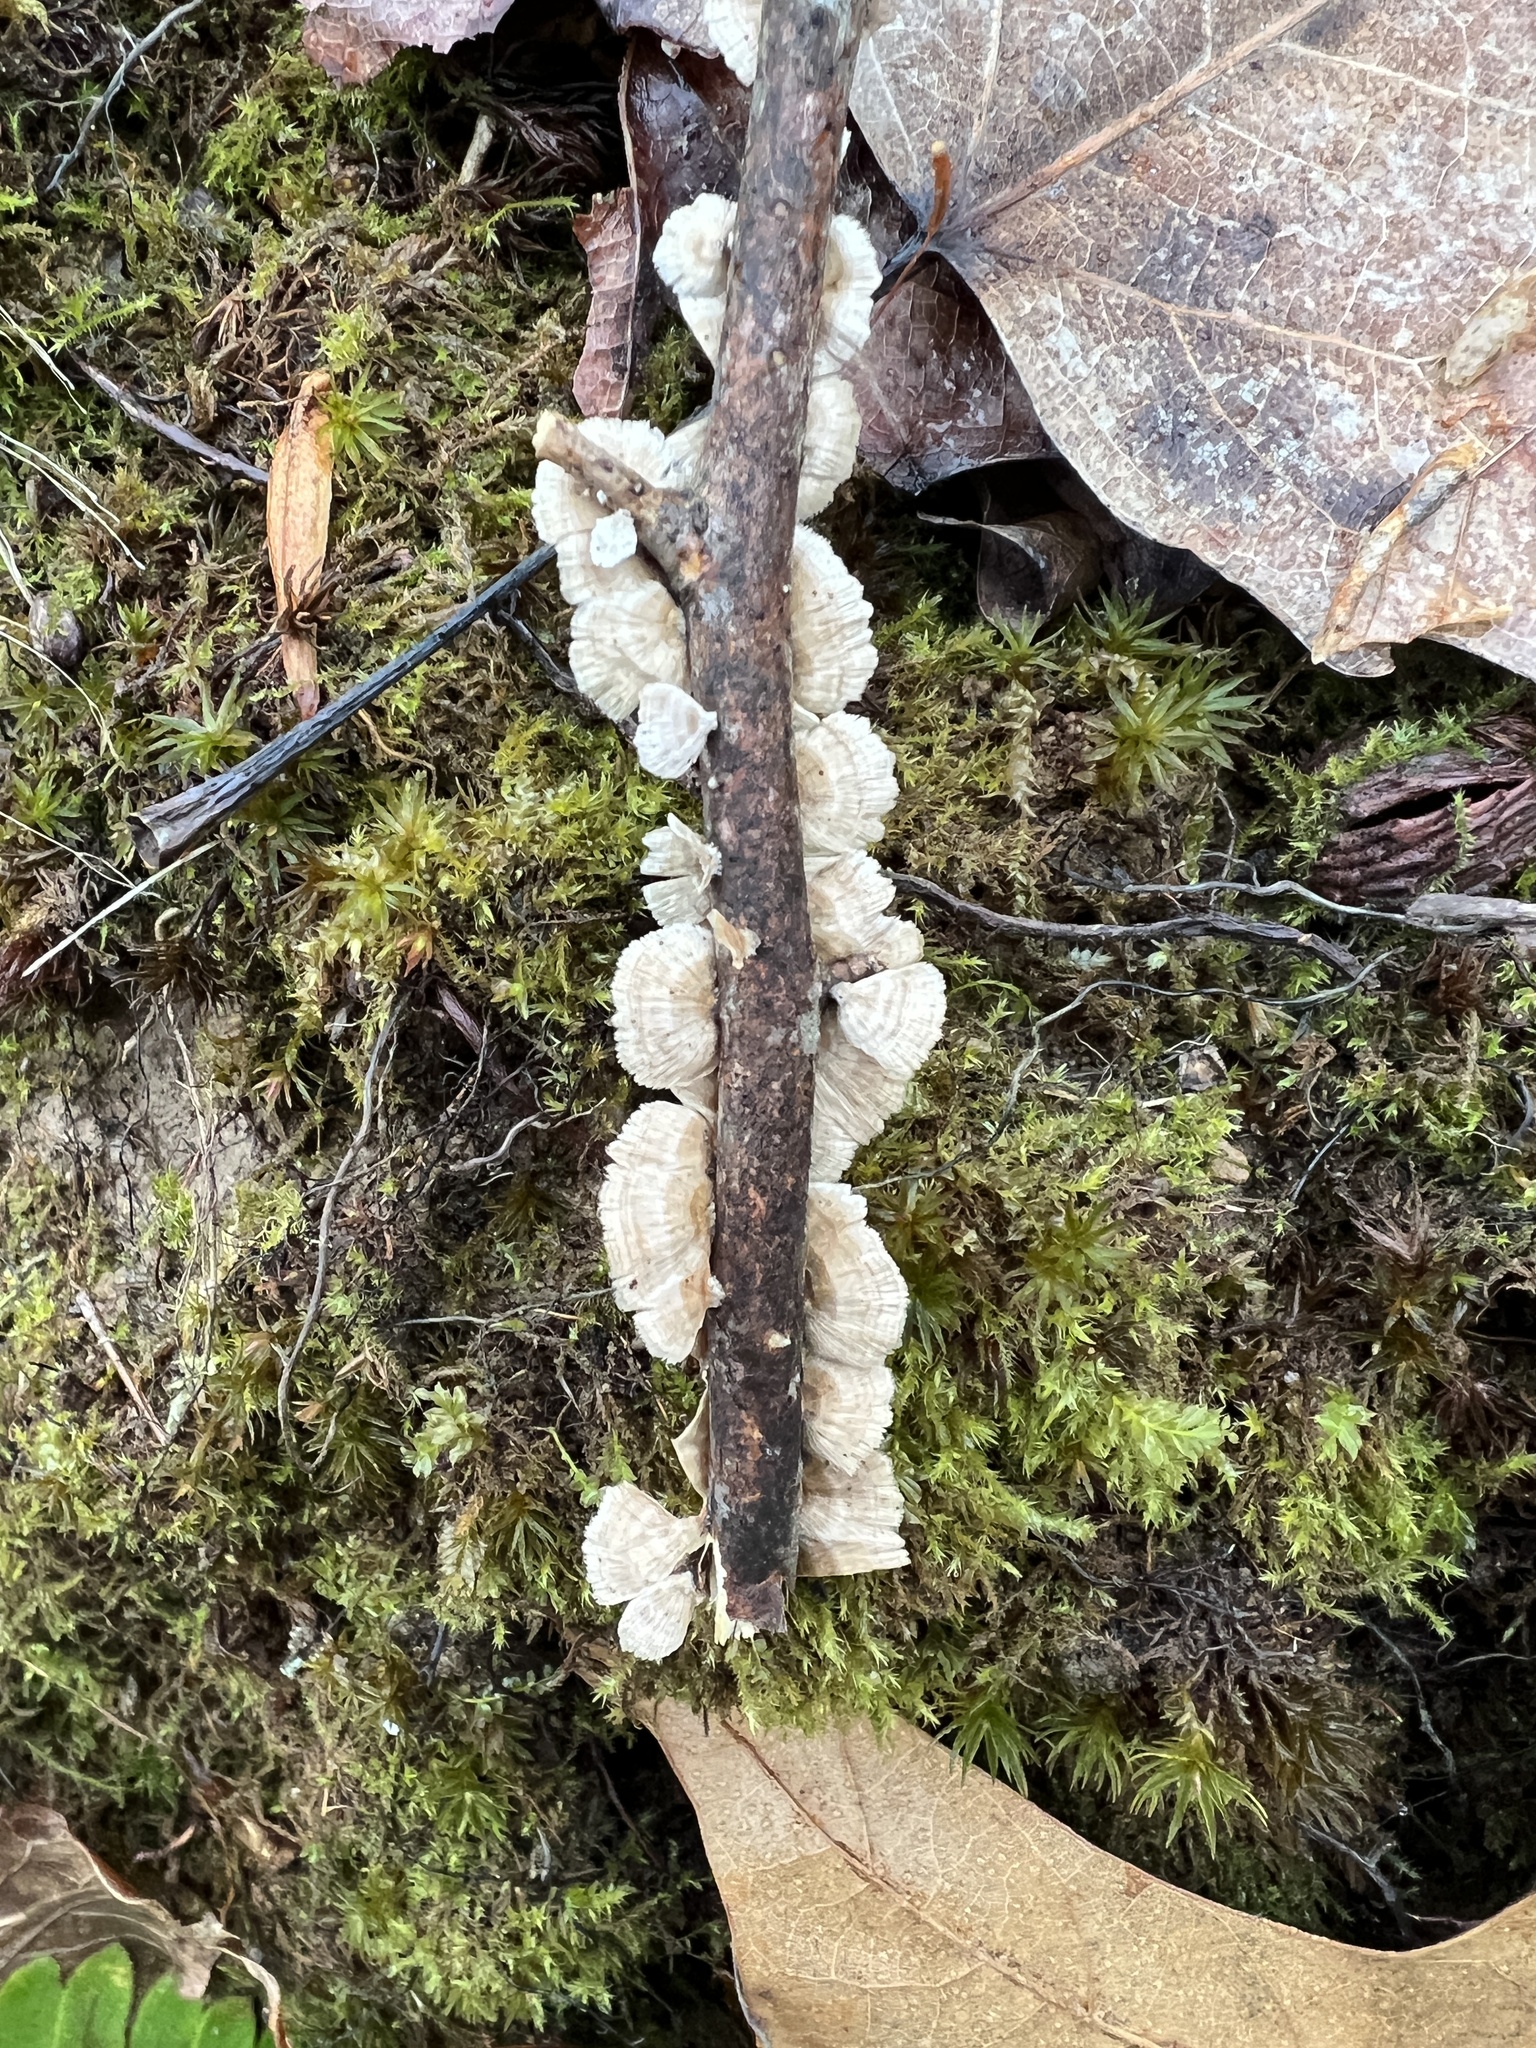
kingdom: Fungi
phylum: Basidiomycota
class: Agaricomycetes
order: Russulales
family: Stereaceae
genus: Stereum
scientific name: Stereum striatum
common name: Silky parchment
